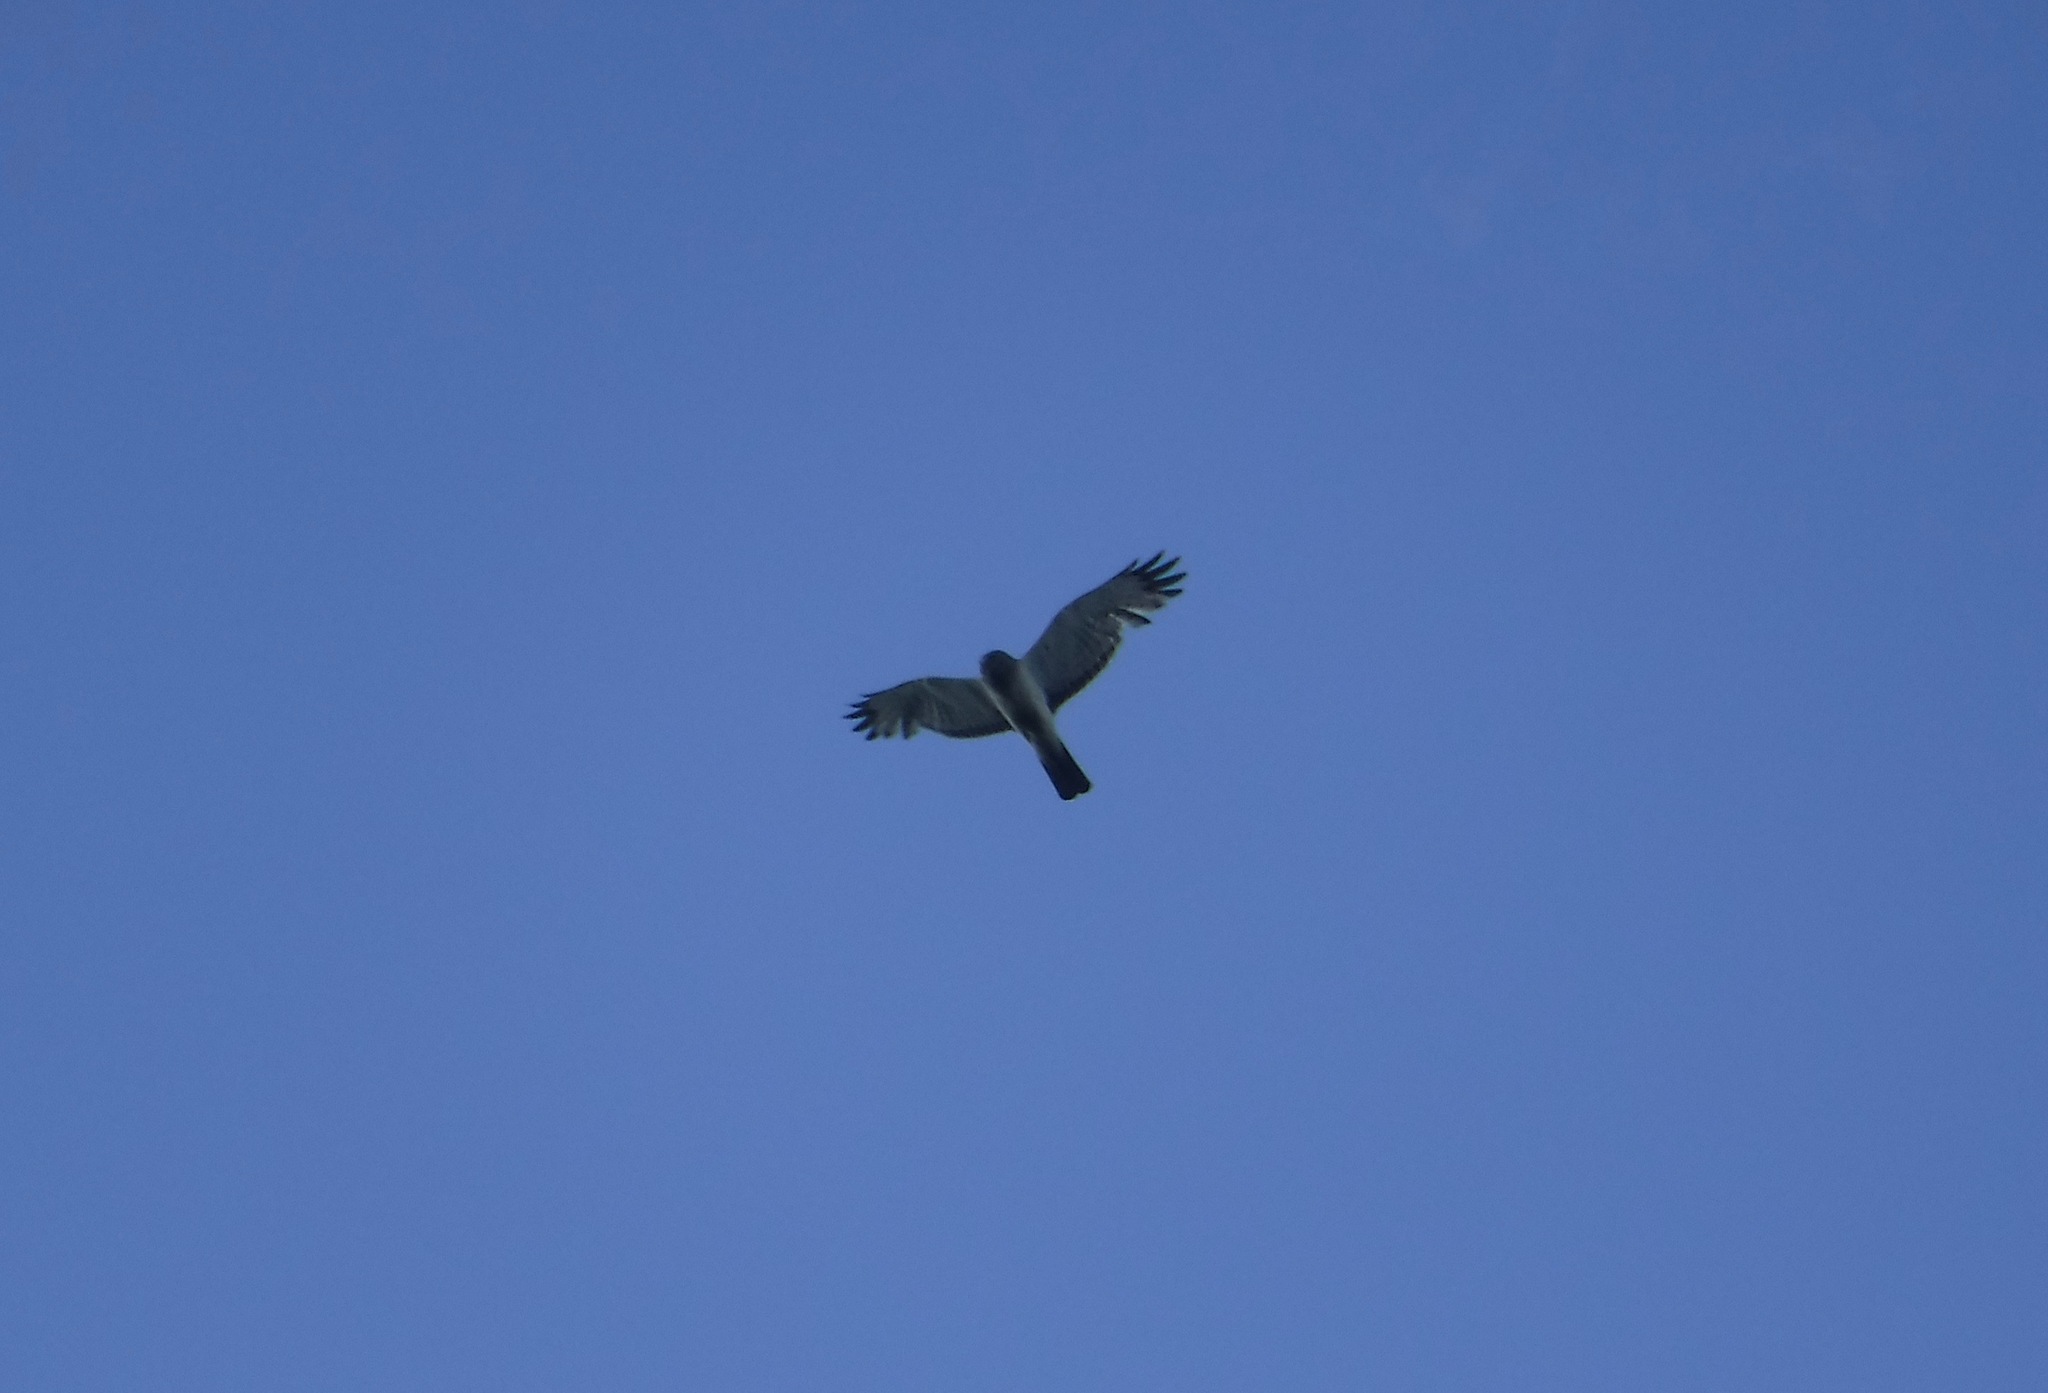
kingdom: Animalia
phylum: Chordata
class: Aves
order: Accipitriformes
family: Accipitridae
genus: Circus
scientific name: Circus cyaneus
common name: Hen harrier
